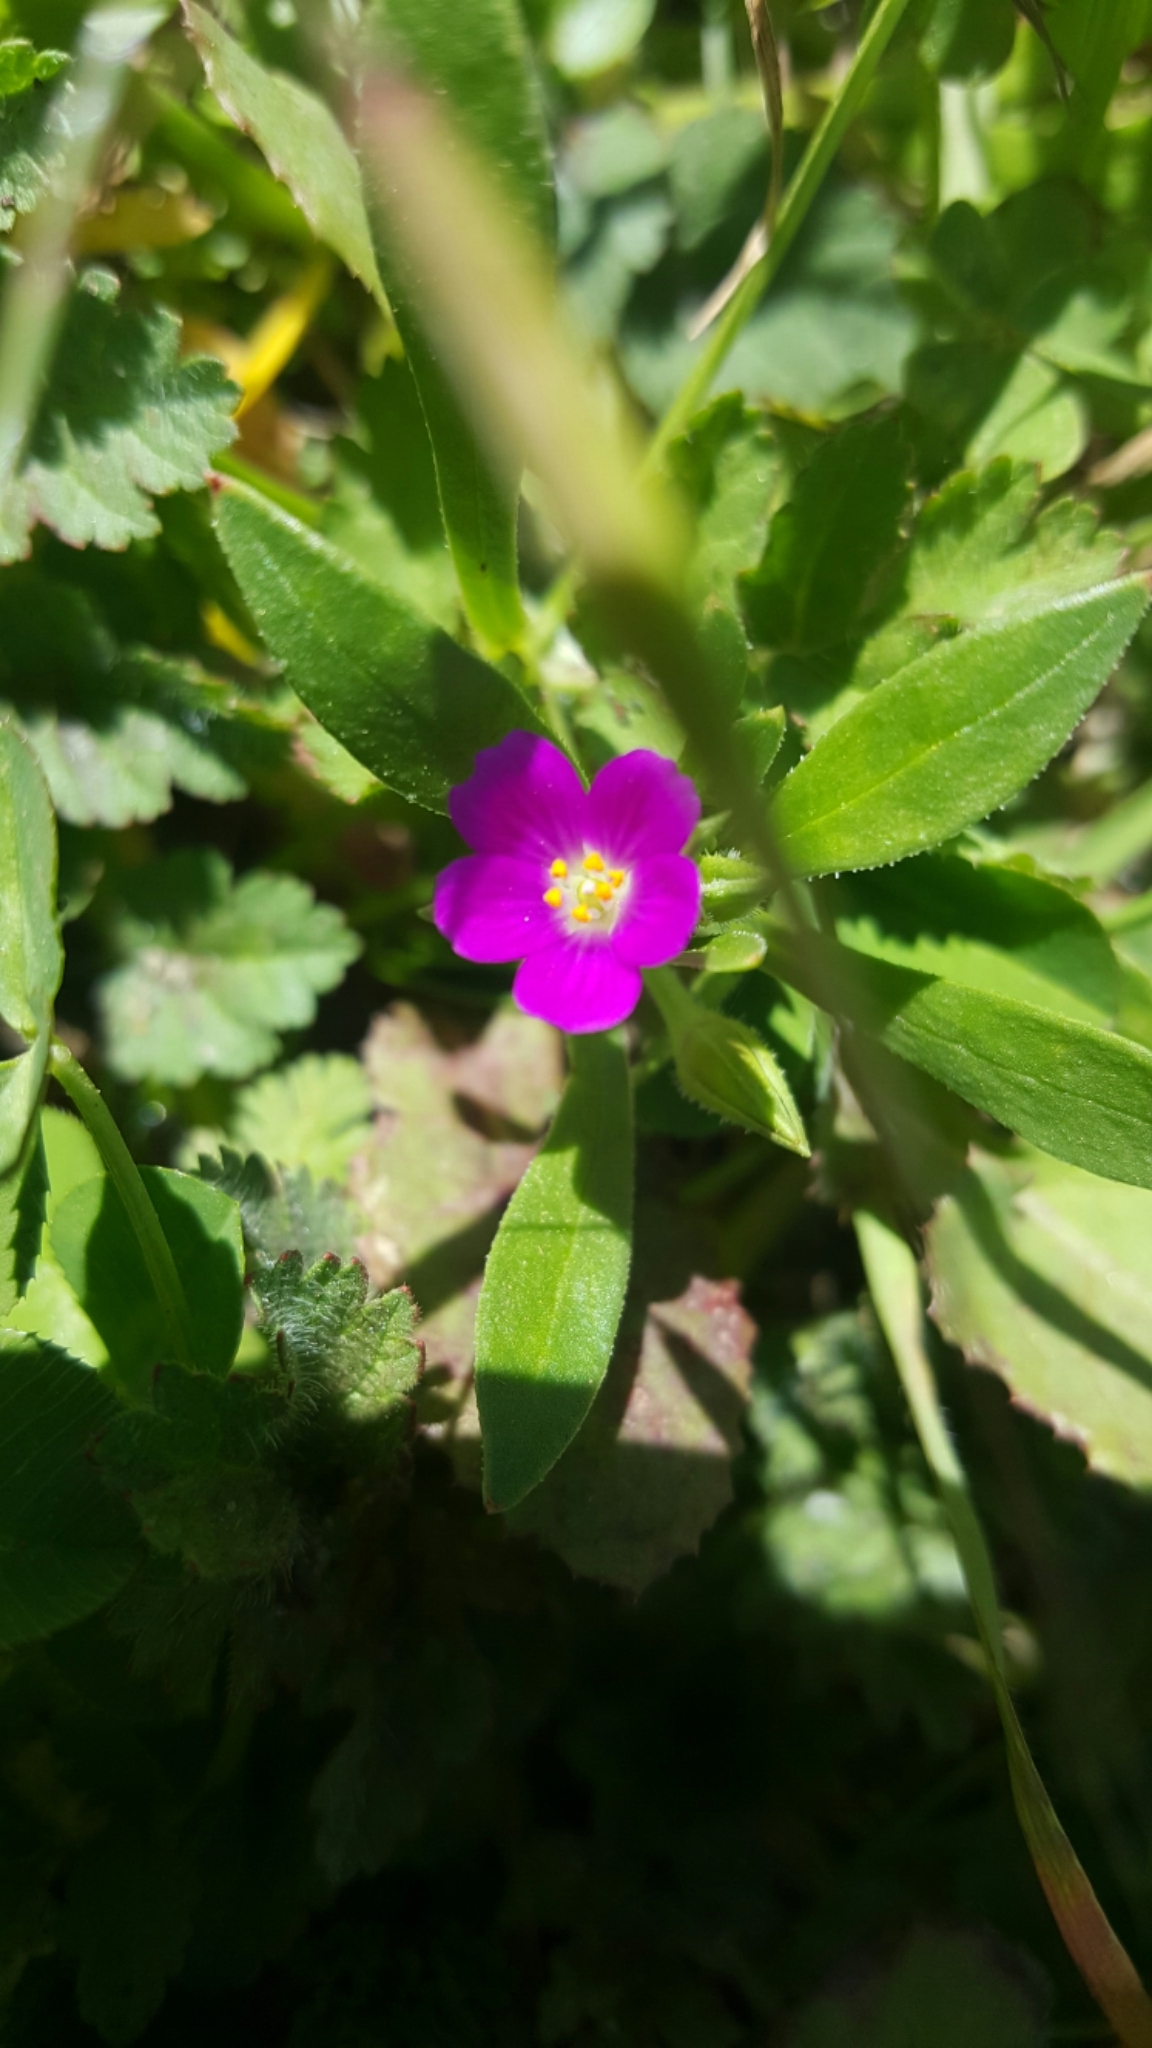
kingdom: Plantae
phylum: Tracheophyta
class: Magnoliopsida
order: Caryophyllales
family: Montiaceae
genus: Calandrinia
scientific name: Calandrinia menziesii
